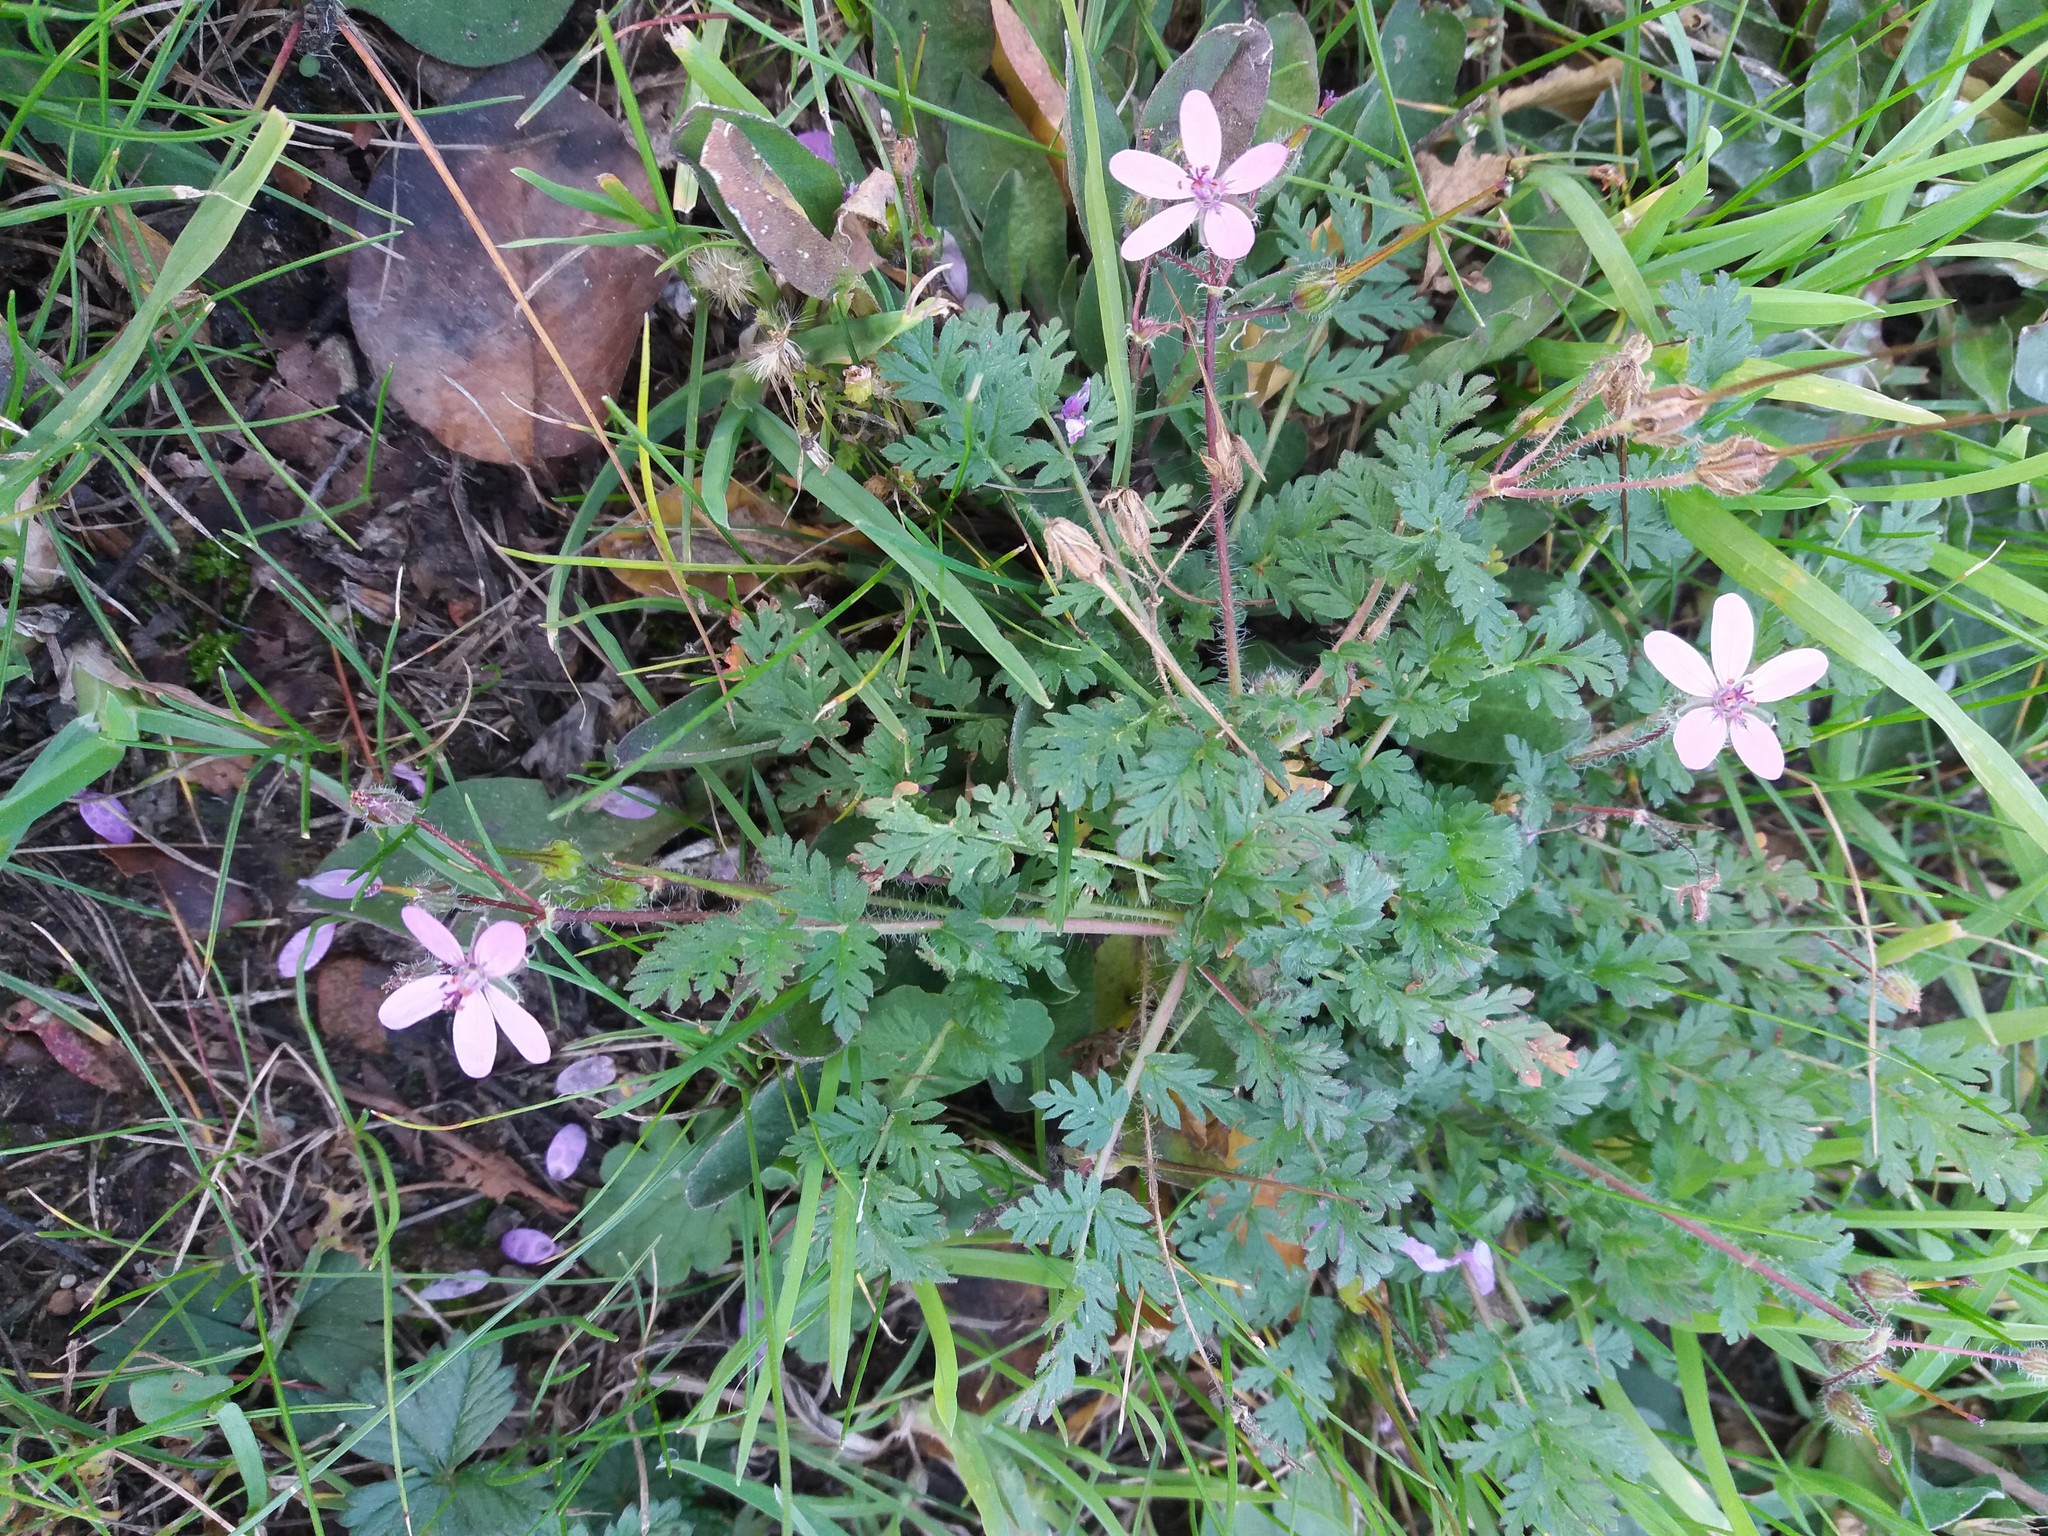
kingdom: Plantae
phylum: Tracheophyta
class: Magnoliopsida
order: Geraniales
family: Geraniaceae
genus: Erodium
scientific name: Erodium cicutarium
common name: Common stork's-bill
